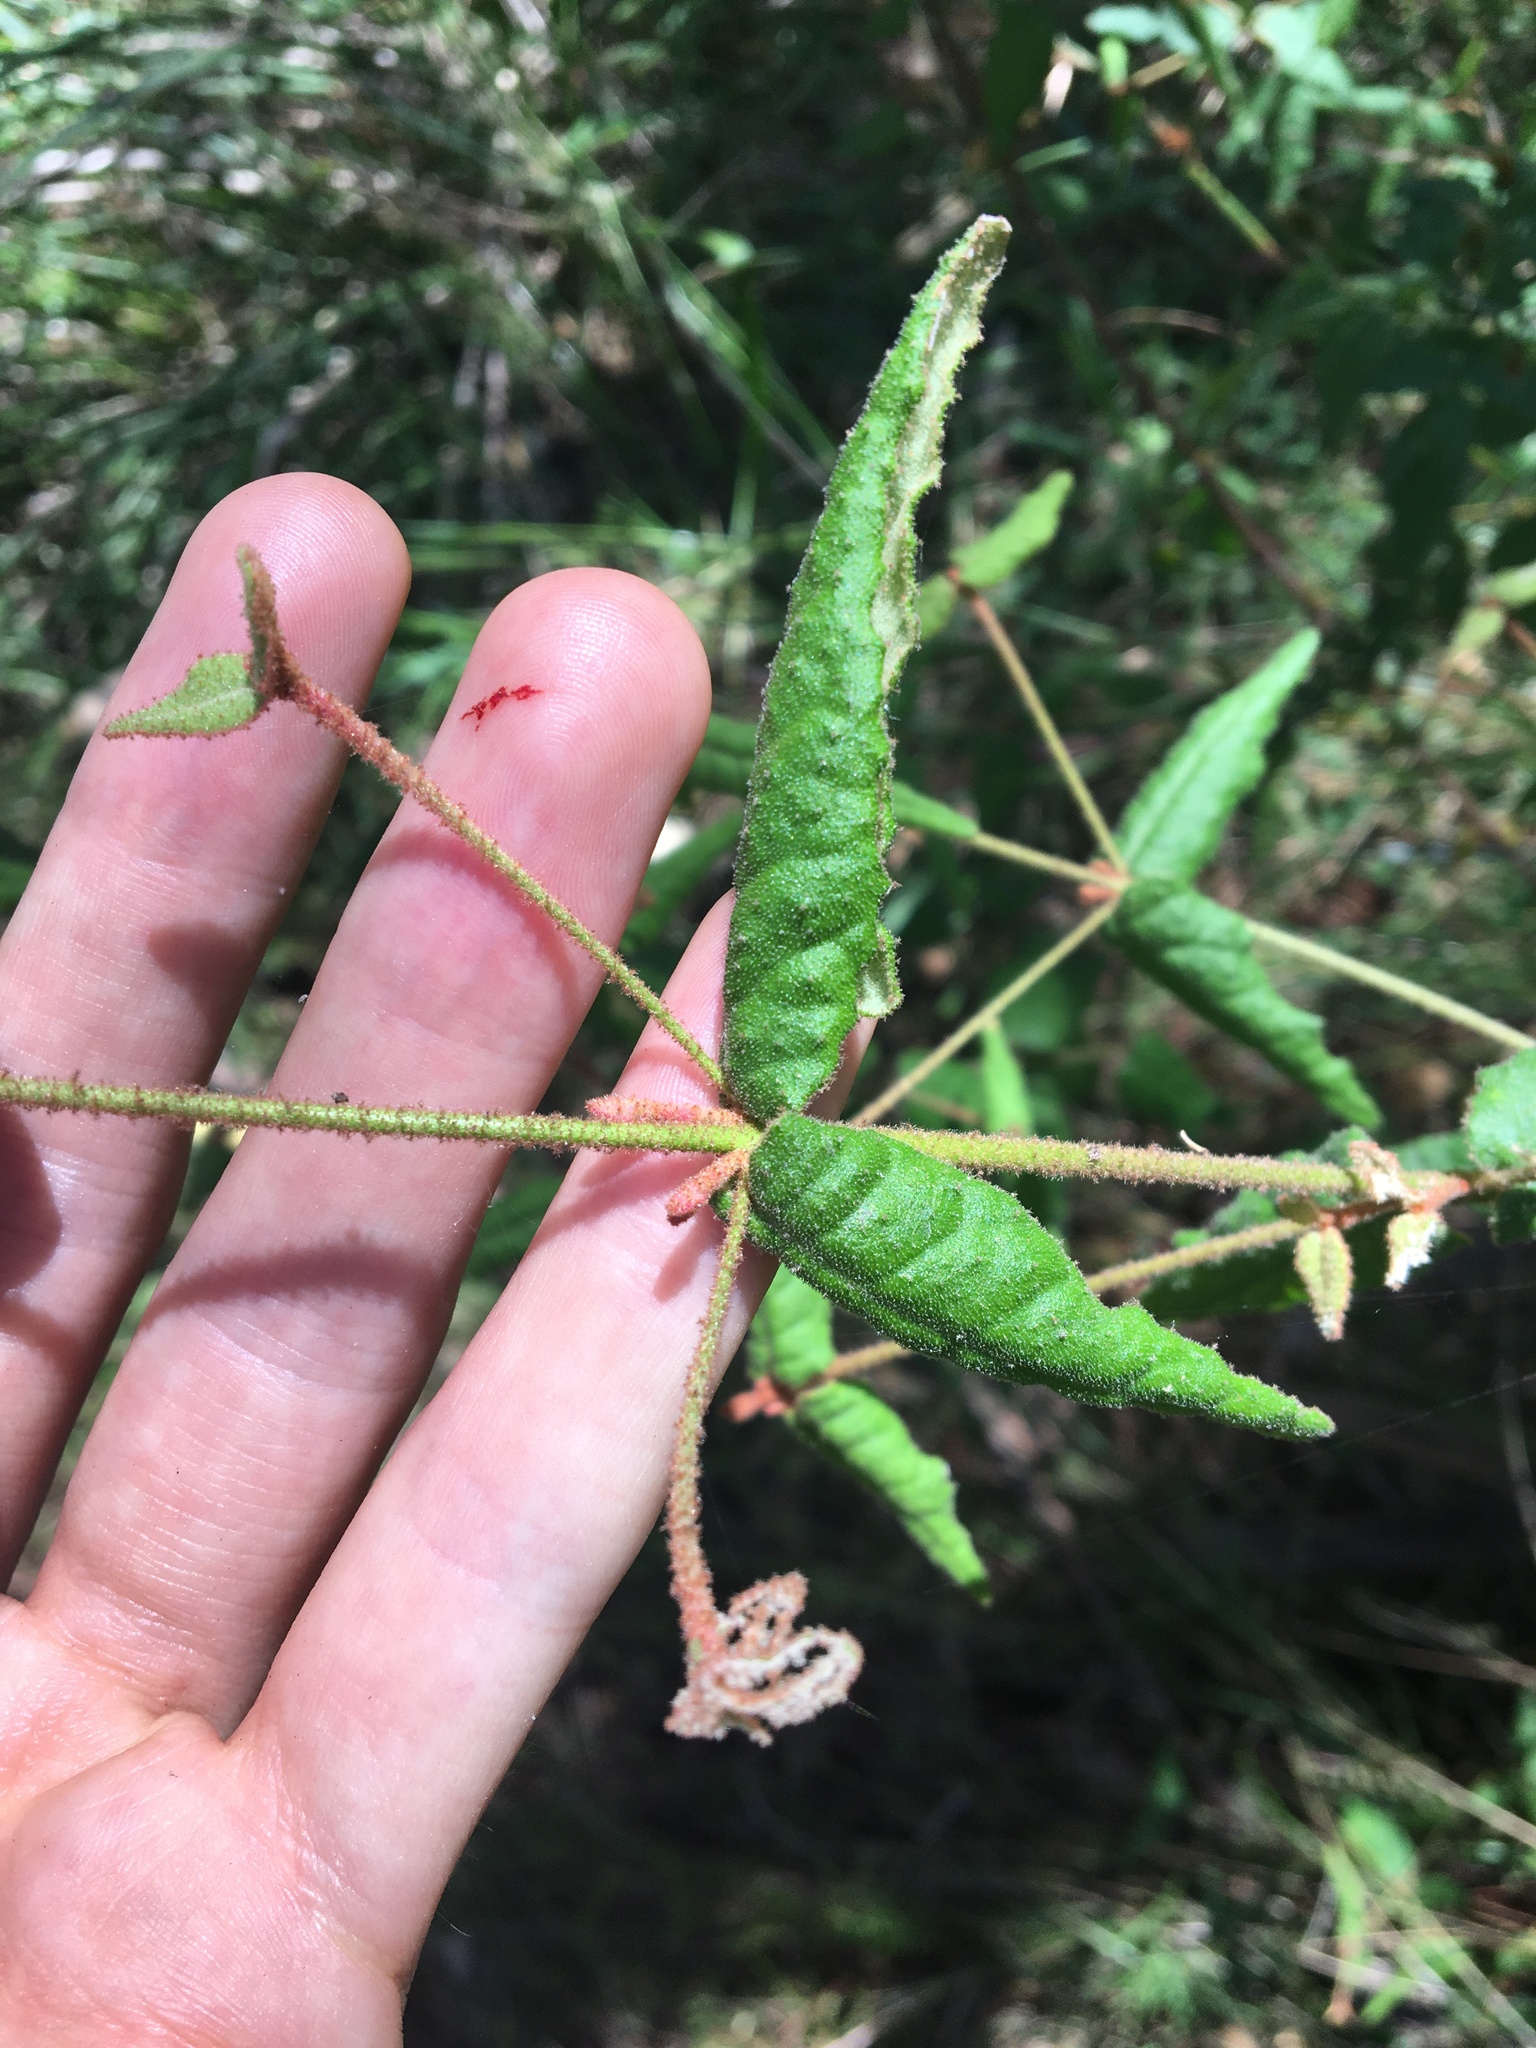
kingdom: Plantae
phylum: Tracheophyta
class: Magnoliopsida
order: Sapindales
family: Rutaceae
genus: Correa
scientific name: Correa reflexa
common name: Common correa
